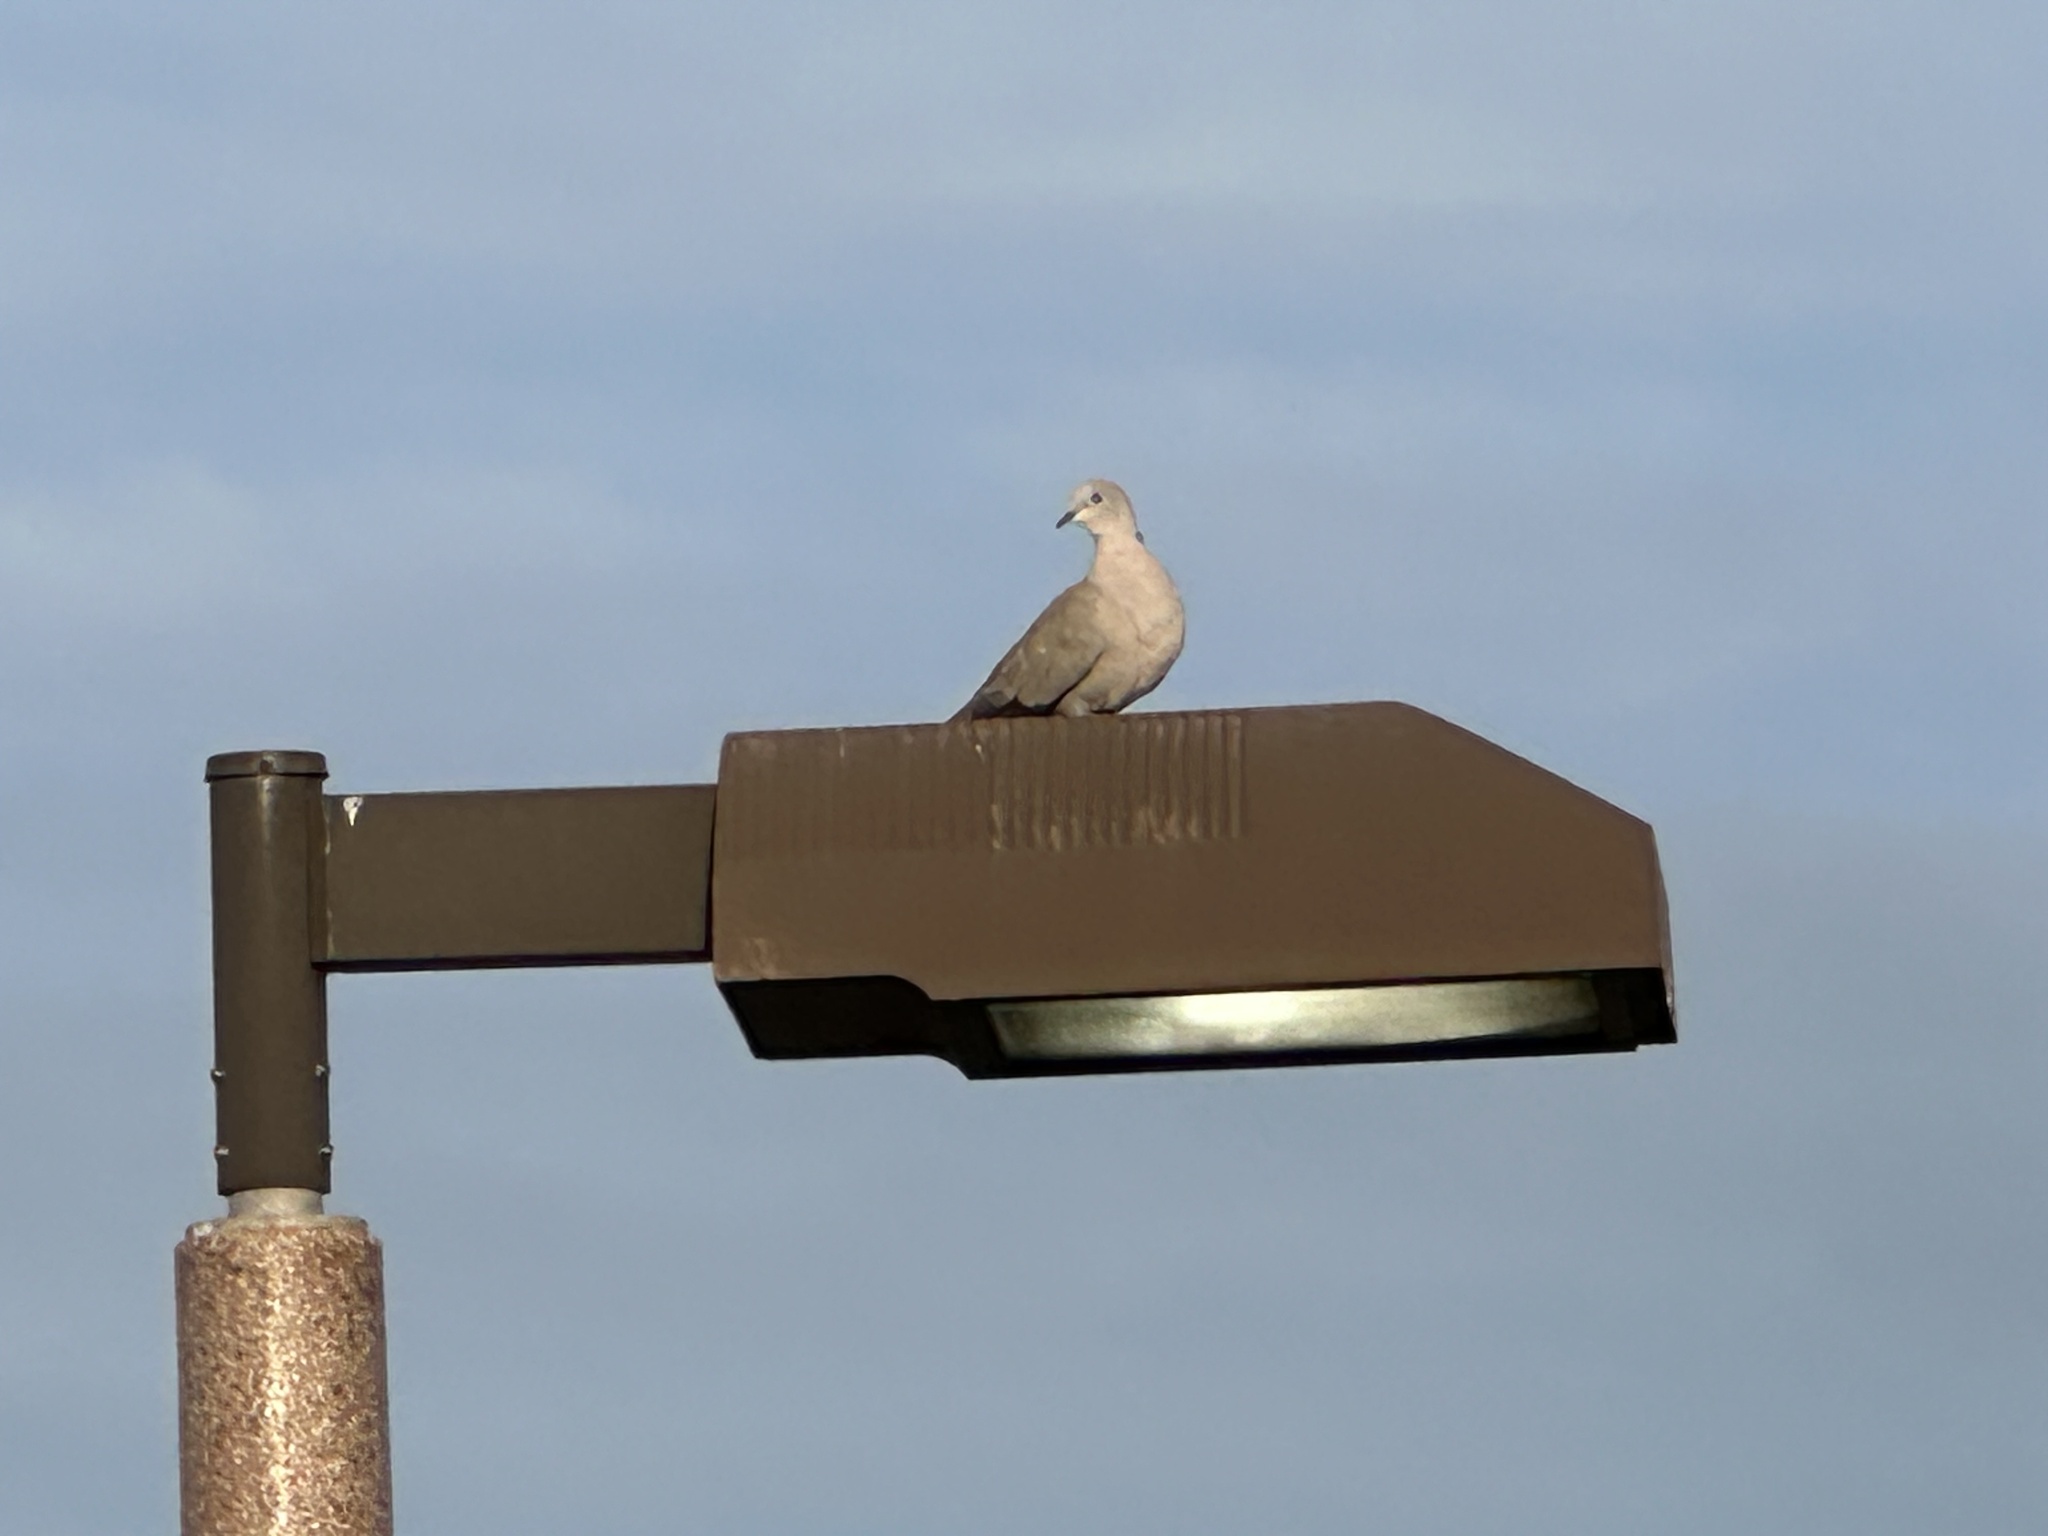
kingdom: Animalia
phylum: Chordata
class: Aves
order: Columbiformes
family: Columbidae
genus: Streptopelia
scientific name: Streptopelia decaocto
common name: Eurasian collared dove
